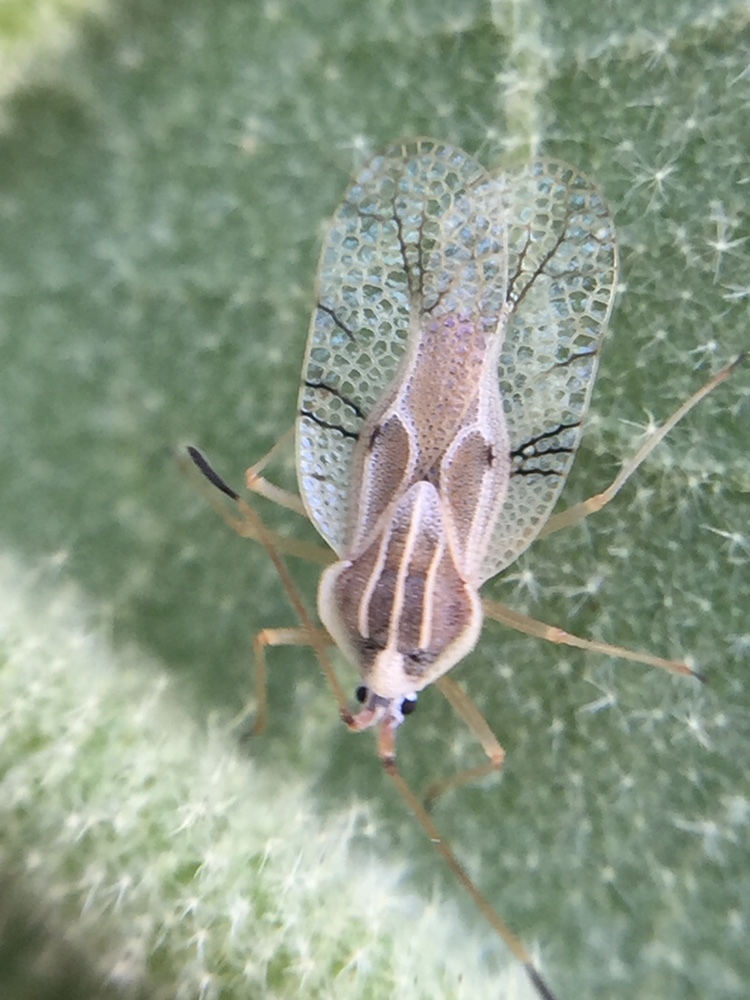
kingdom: Animalia
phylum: Arthropoda
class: Insecta
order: Hemiptera
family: Tingidae
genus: Gargaphia
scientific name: Gargaphia decoris
